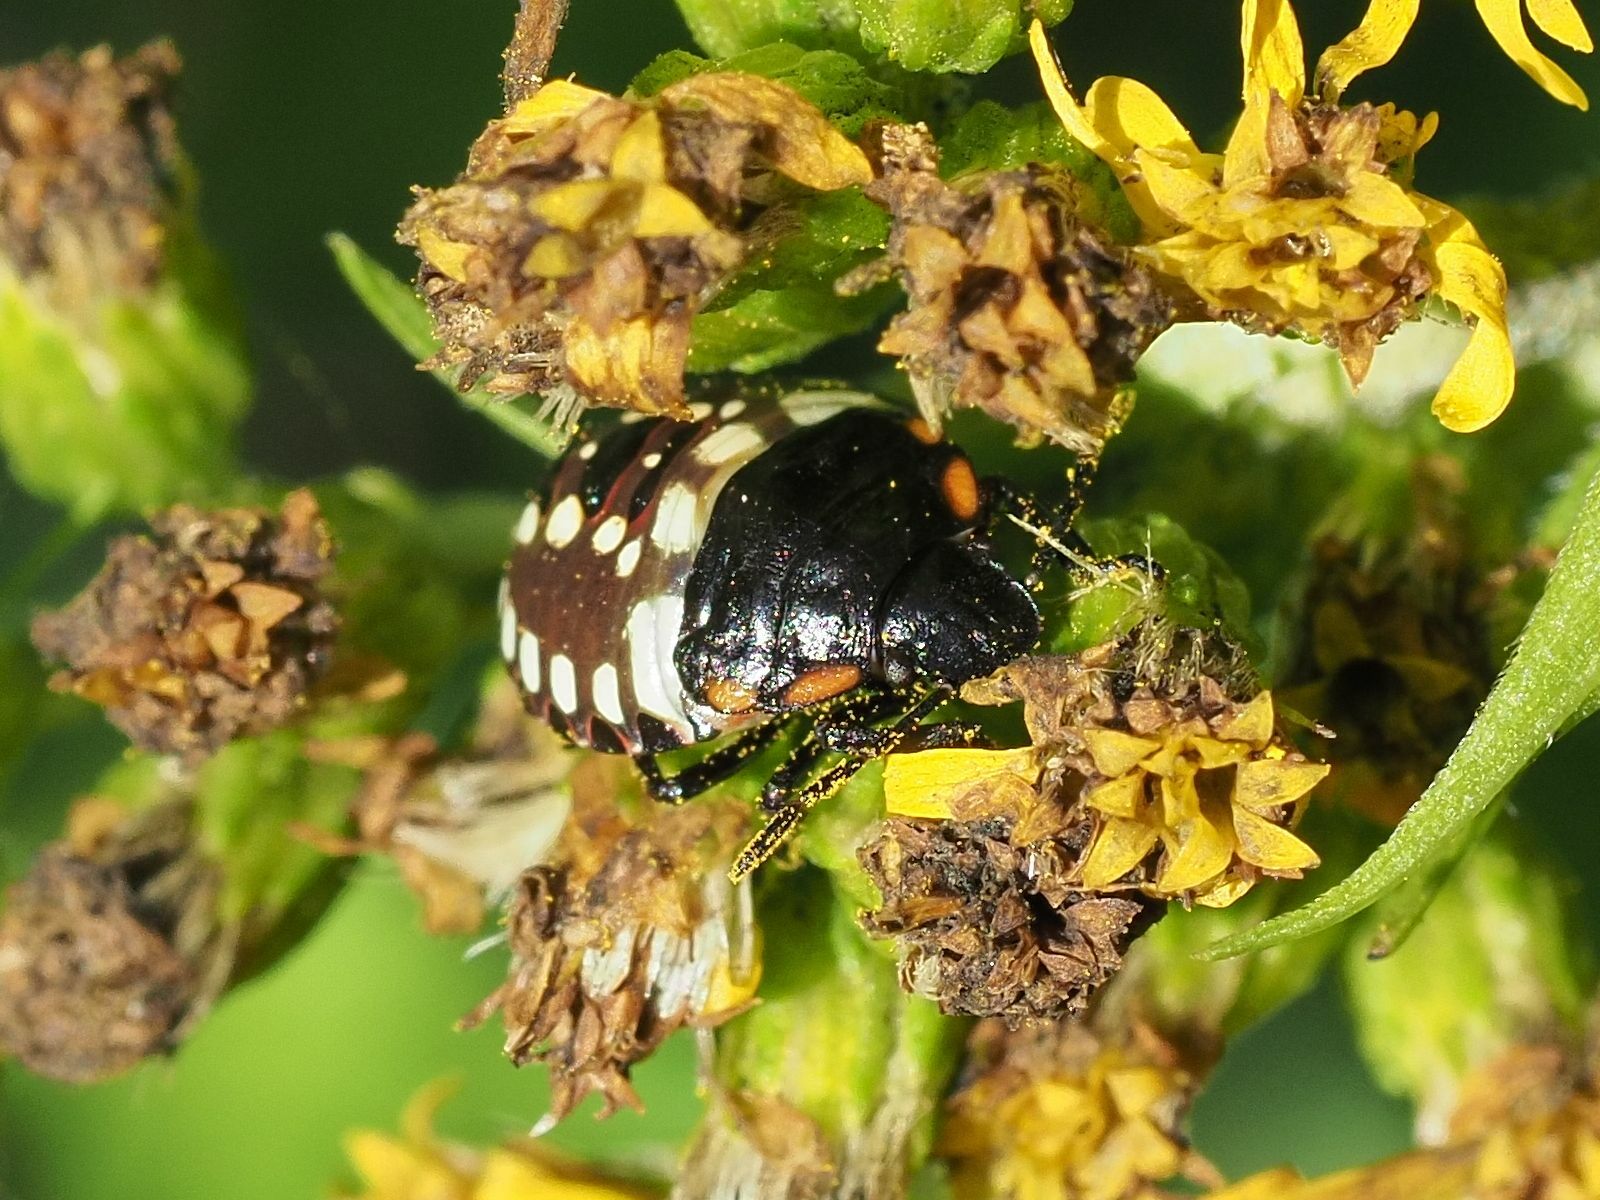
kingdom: Animalia
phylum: Arthropoda
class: Insecta
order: Hemiptera
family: Pentatomidae
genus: Nezara
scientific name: Nezara viridula
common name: Southern green stink bug
